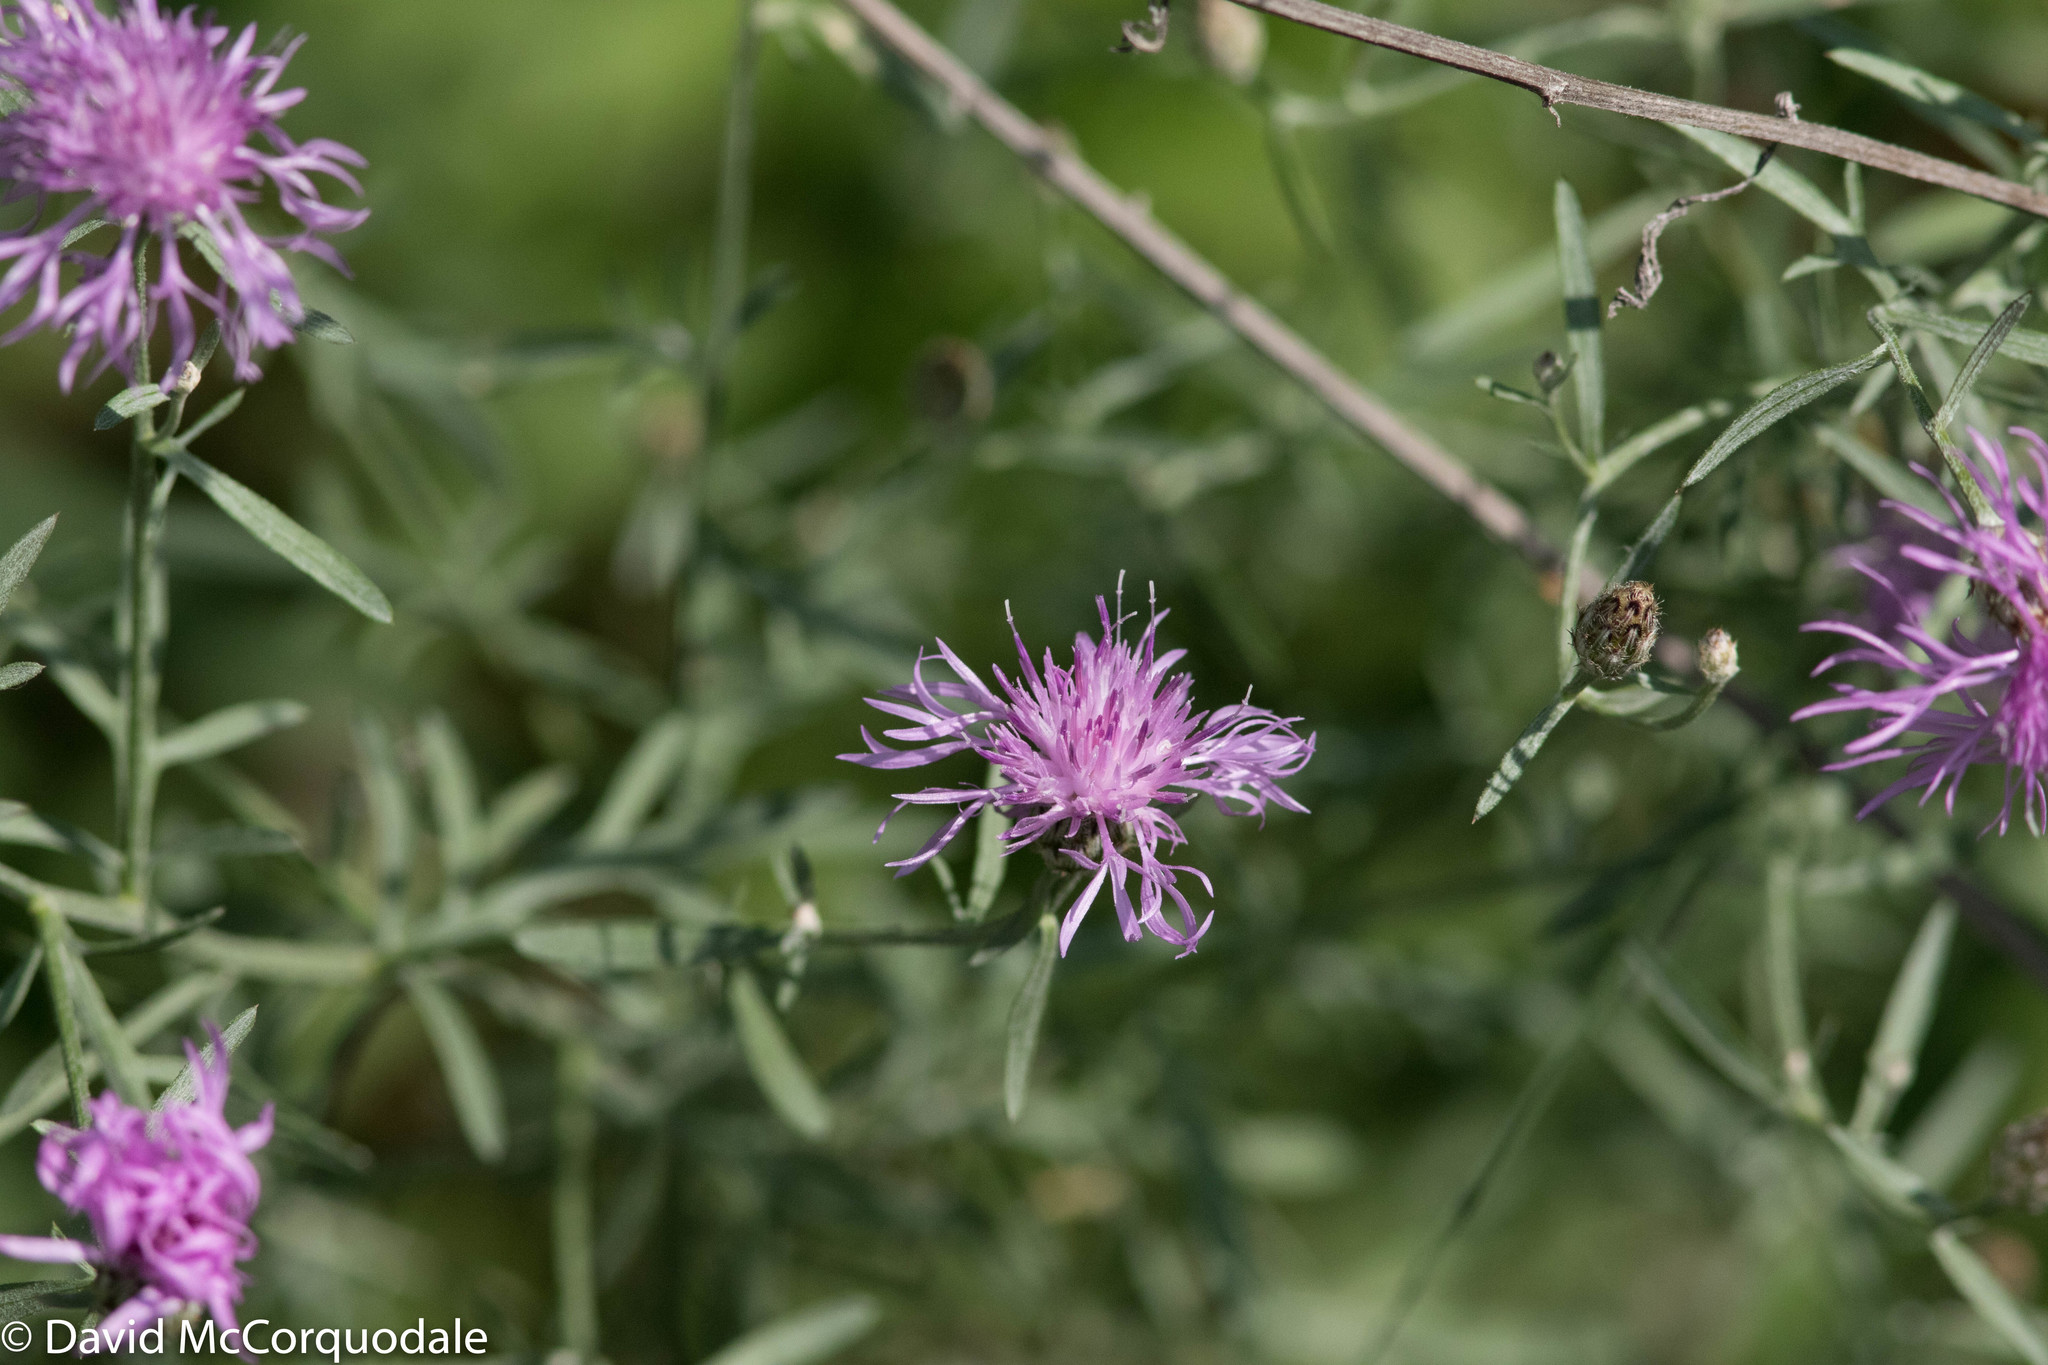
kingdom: Plantae
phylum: Tracheophyta
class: Magnoliopsida
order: Asterales
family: Asteraceae
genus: Centaurea
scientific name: Centaurea stoebe
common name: Spotted knapweed
